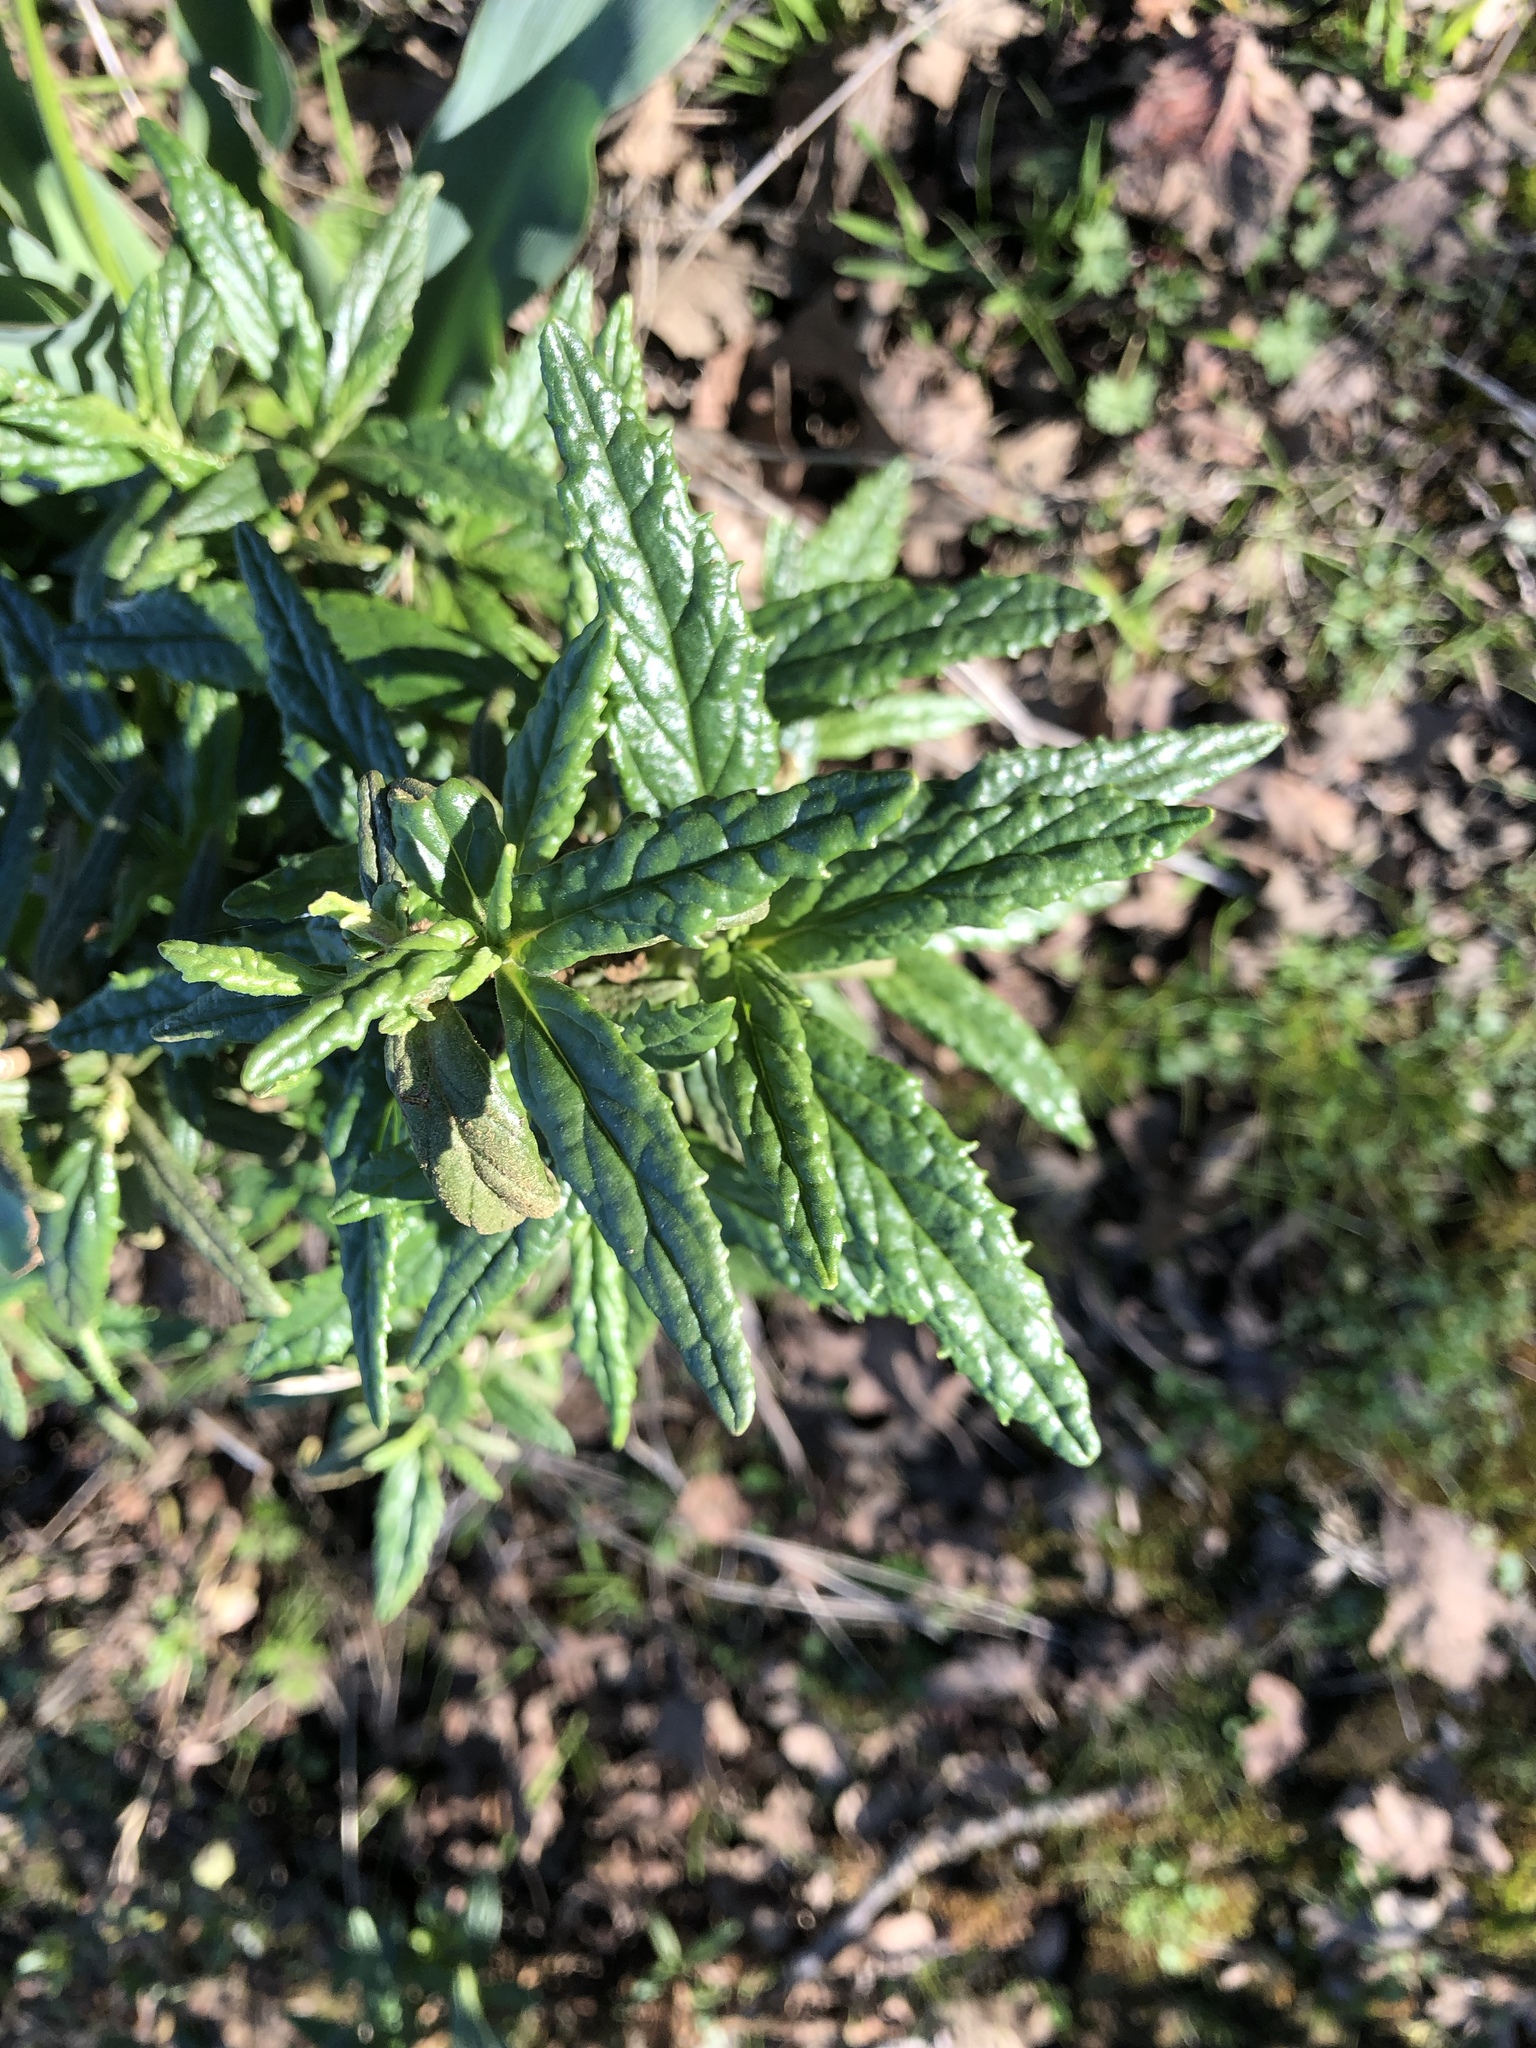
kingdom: Plantae
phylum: Tracheophyta
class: Magnoliopsida
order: Lamiales
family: Phrymaceae
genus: Diplacus
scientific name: Diplacus aurantiacus
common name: Bush monkey-flower
